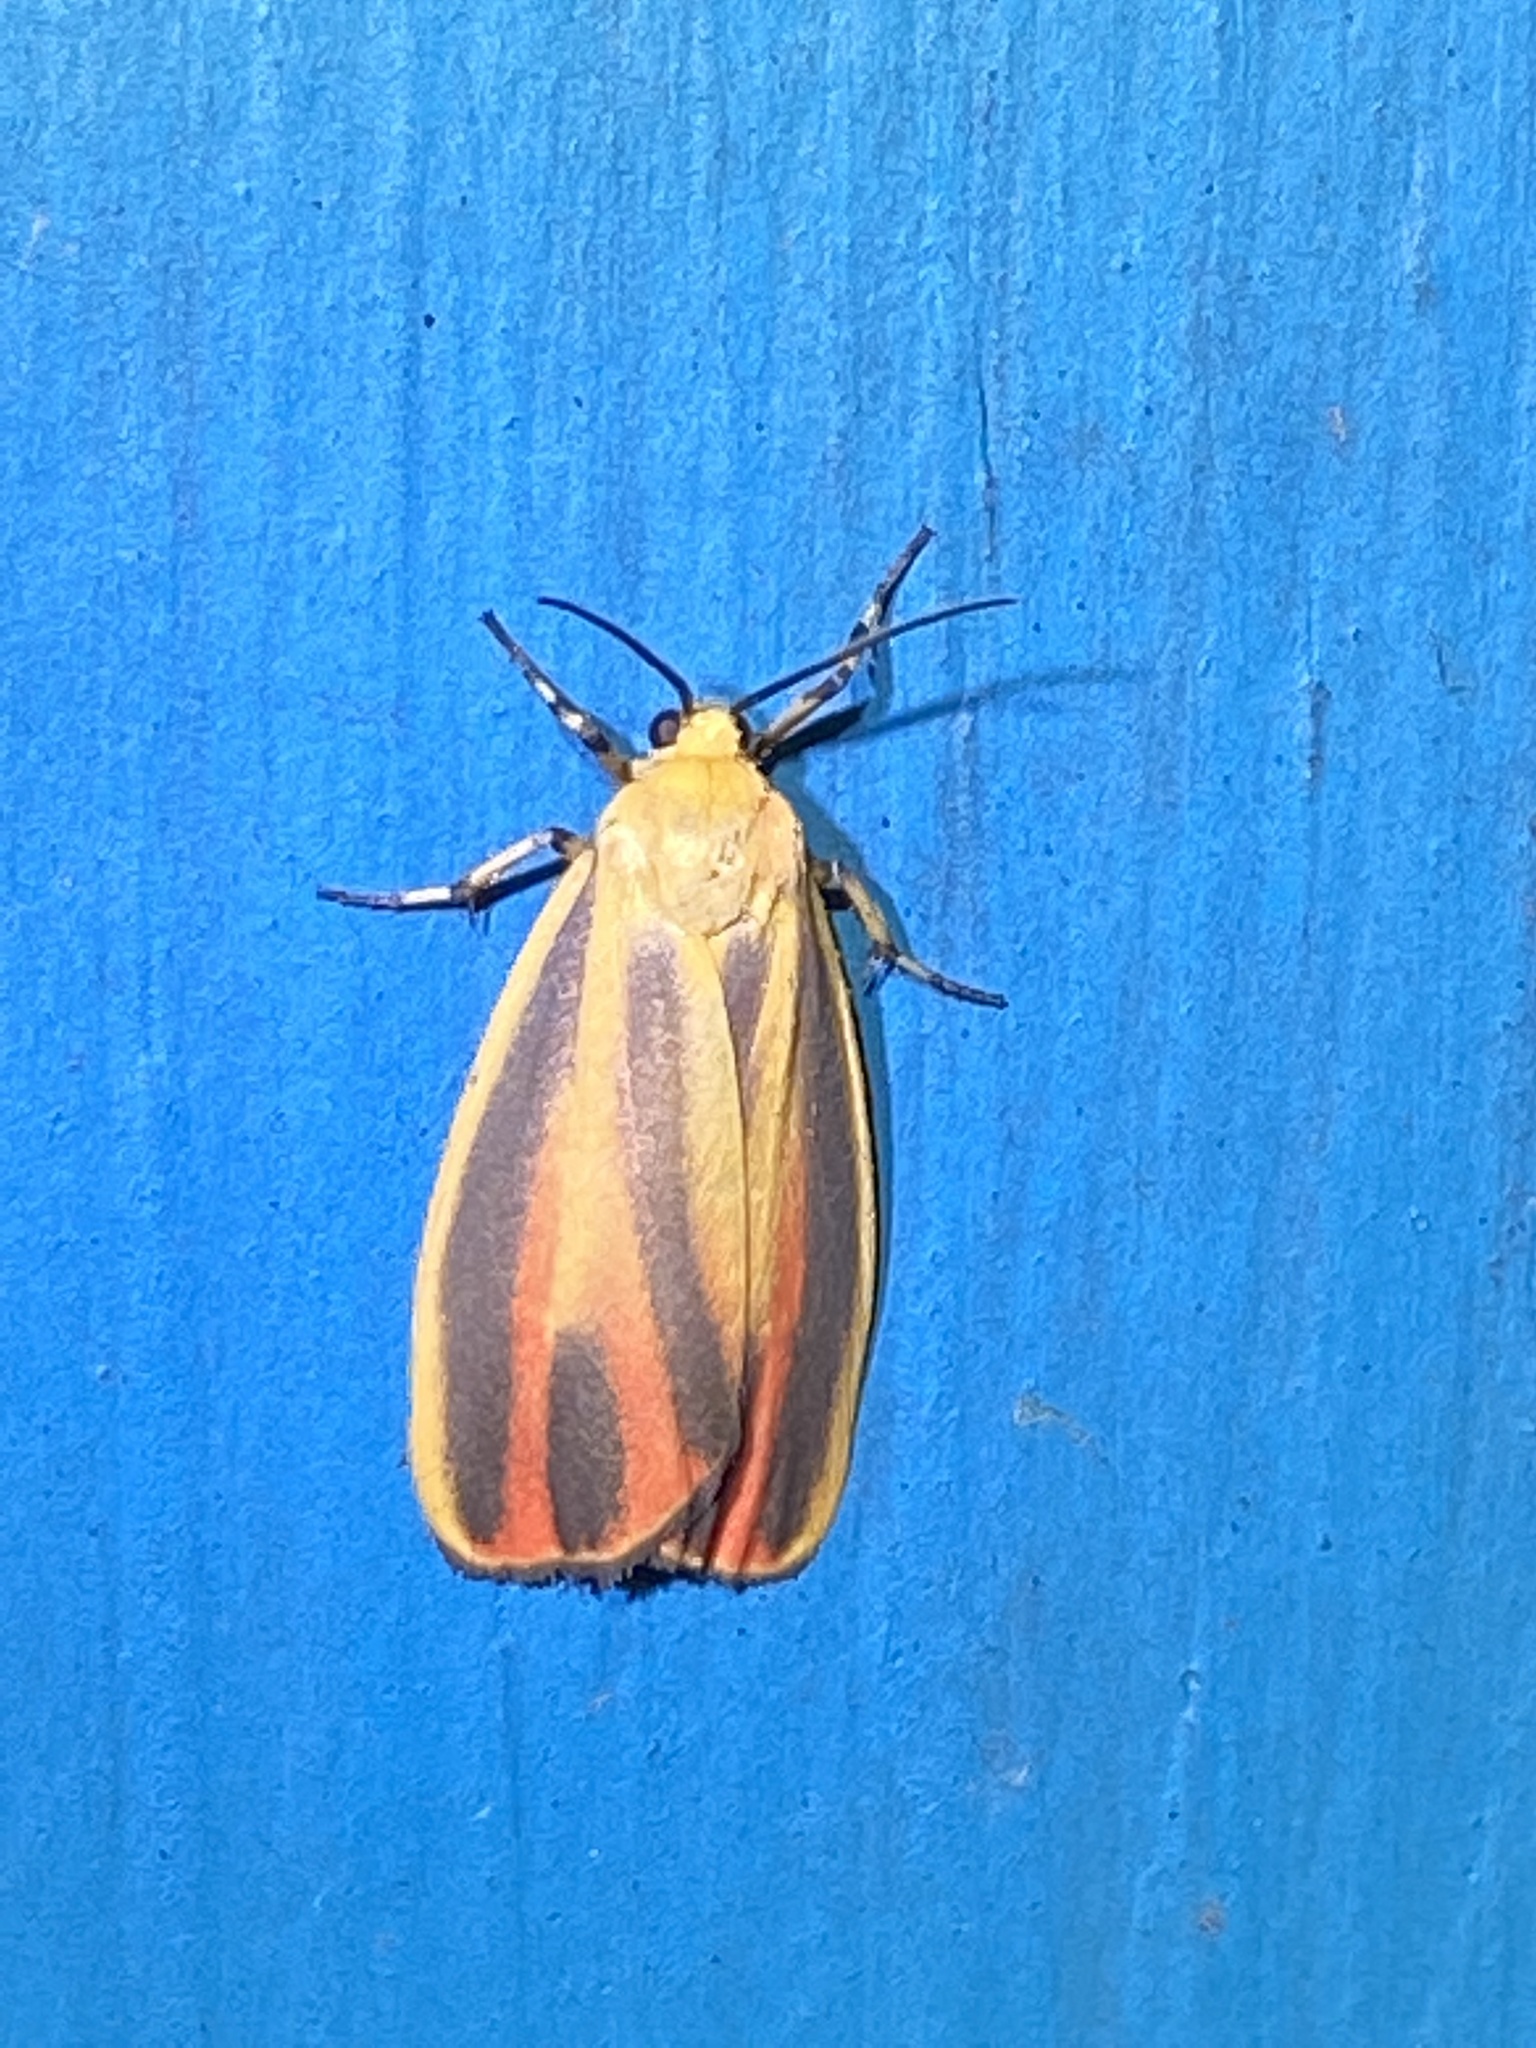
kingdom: Animalia
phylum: Arthropoda
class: Insecta
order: Lepidoptera
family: Erebidae
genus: Hypoprepia
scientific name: Hypoprepia fucosa
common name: Painted lichen moth
